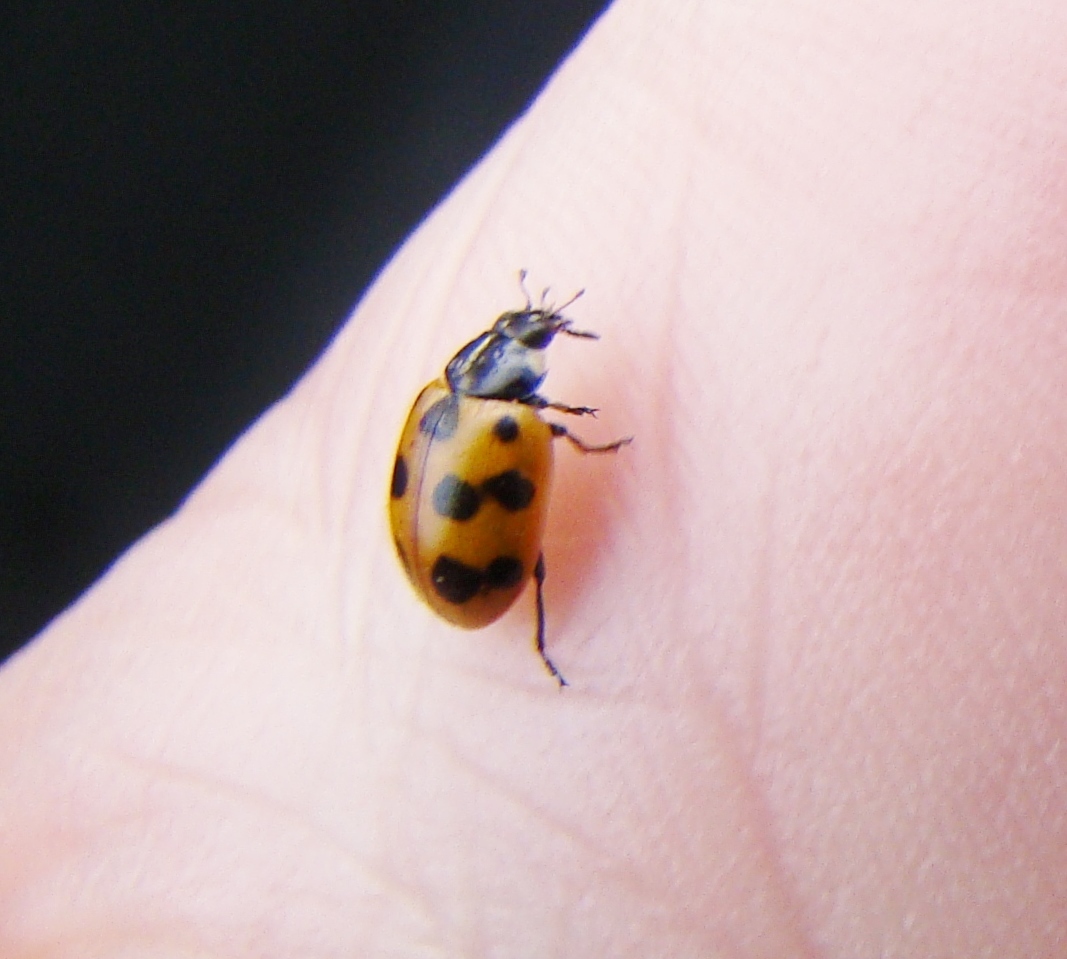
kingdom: Animalia
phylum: Arthropoda
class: Insecta
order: Coleoptera
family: Coccinellidae
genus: Coccinella
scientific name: Coccinella undecimpunctata
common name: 11-spot ladybird
